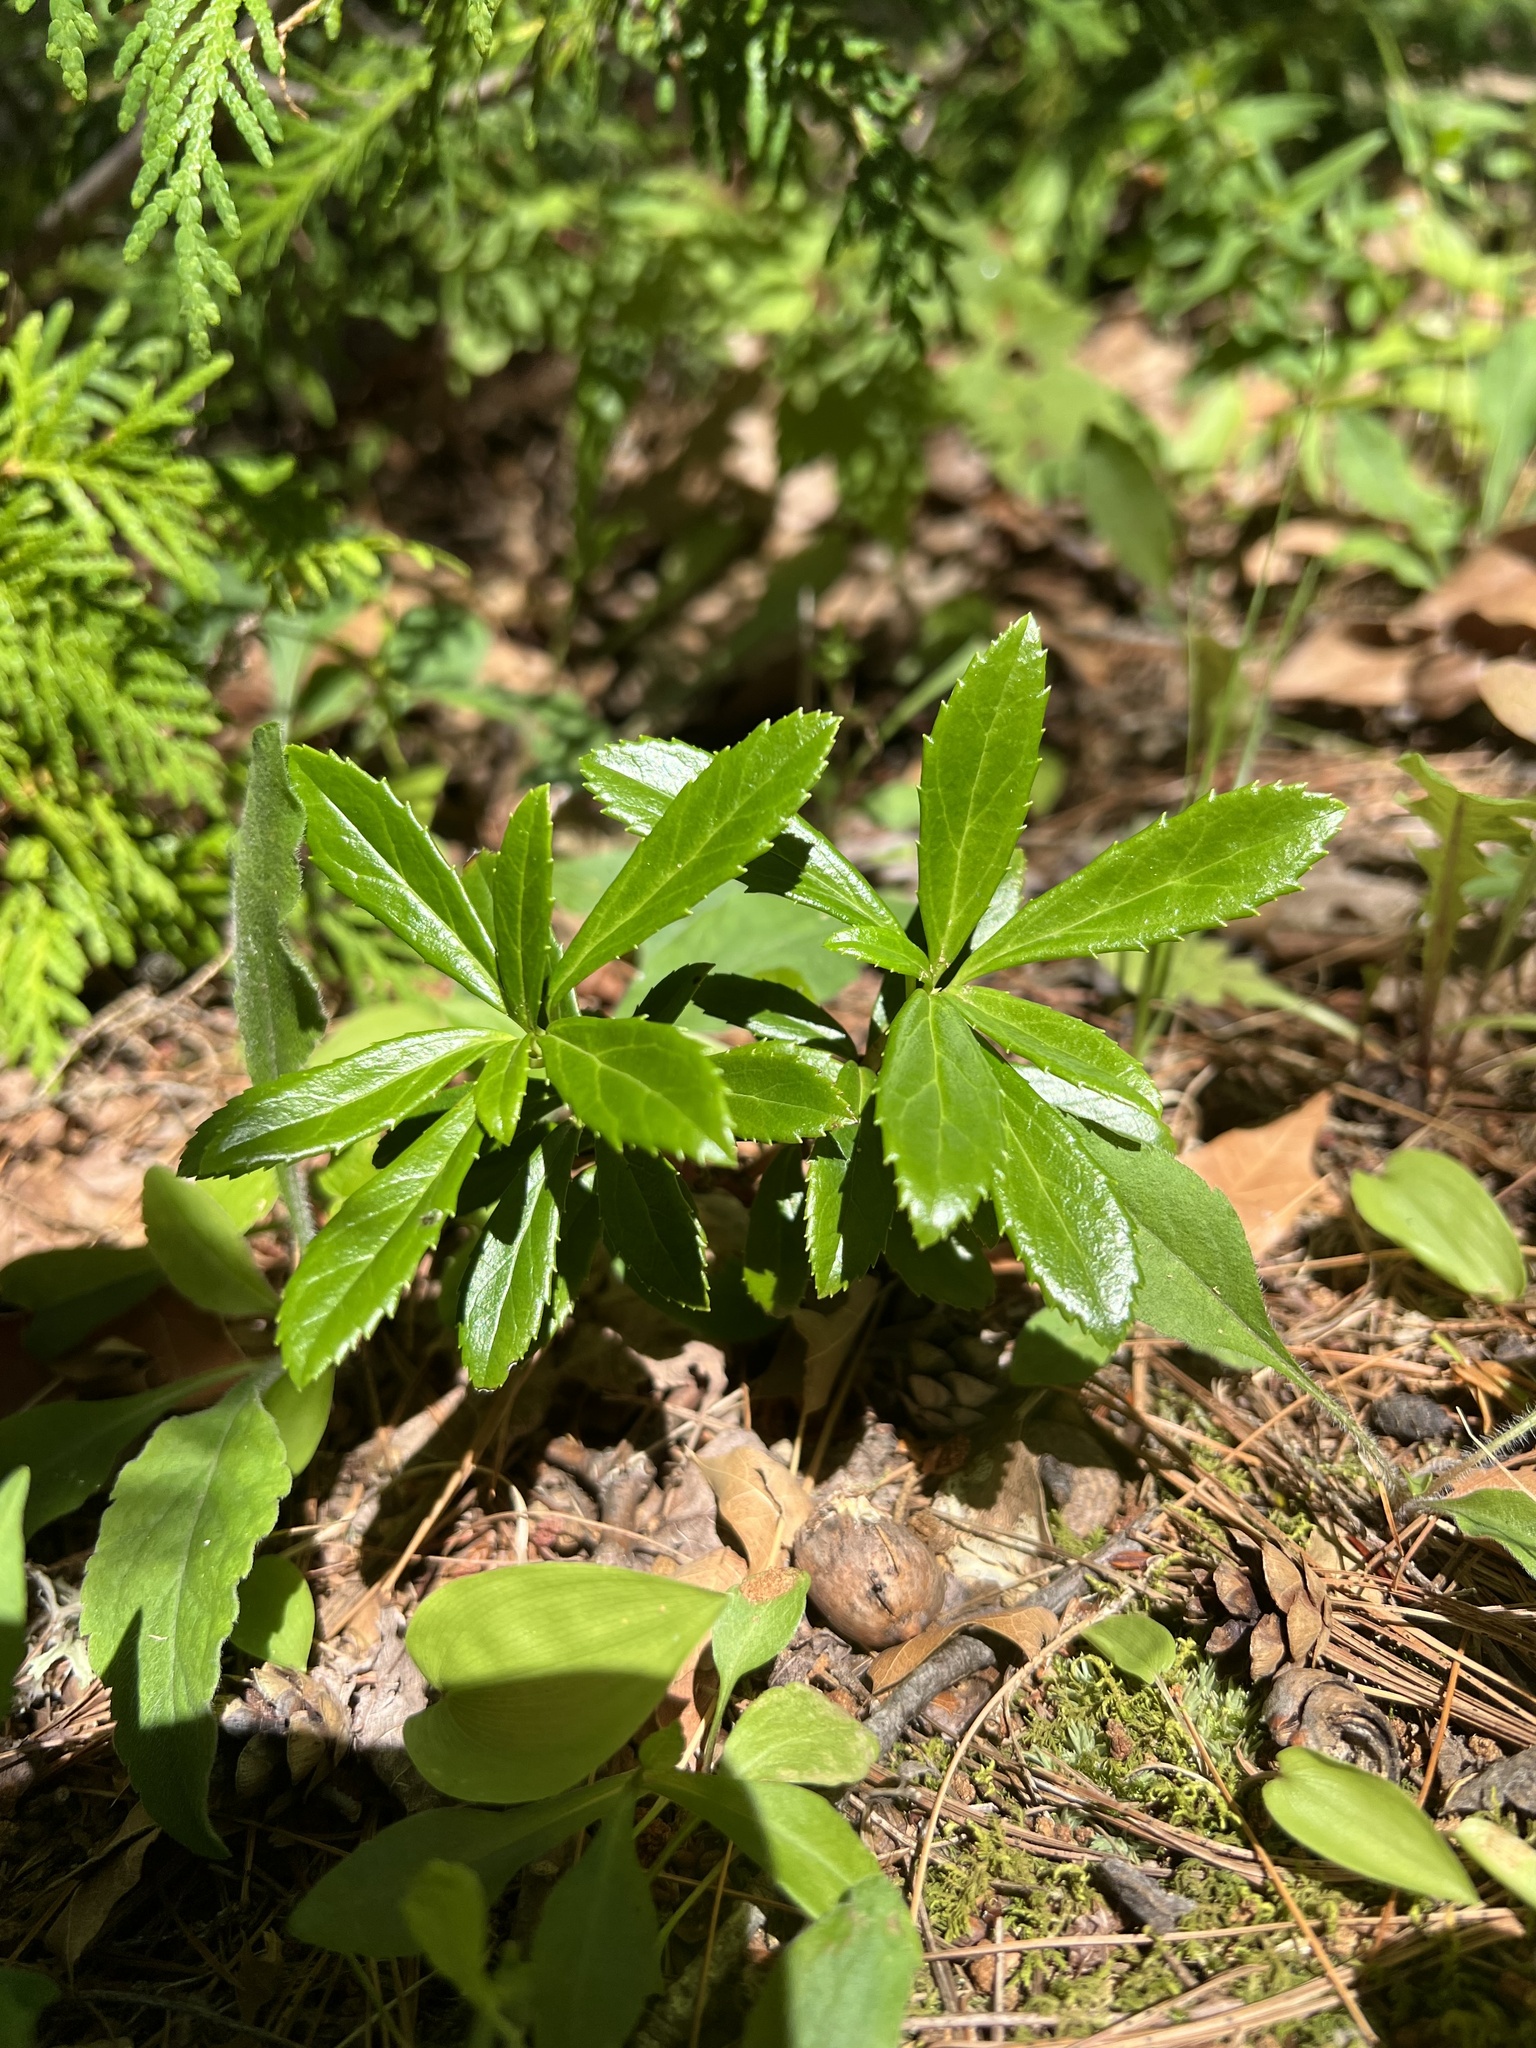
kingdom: Plantae
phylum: Tracheophyta
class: Magnoliopsida
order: Ericales
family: Ericaceae
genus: Chimaphila
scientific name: Chimaphila umbellata
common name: Pipsissewa
